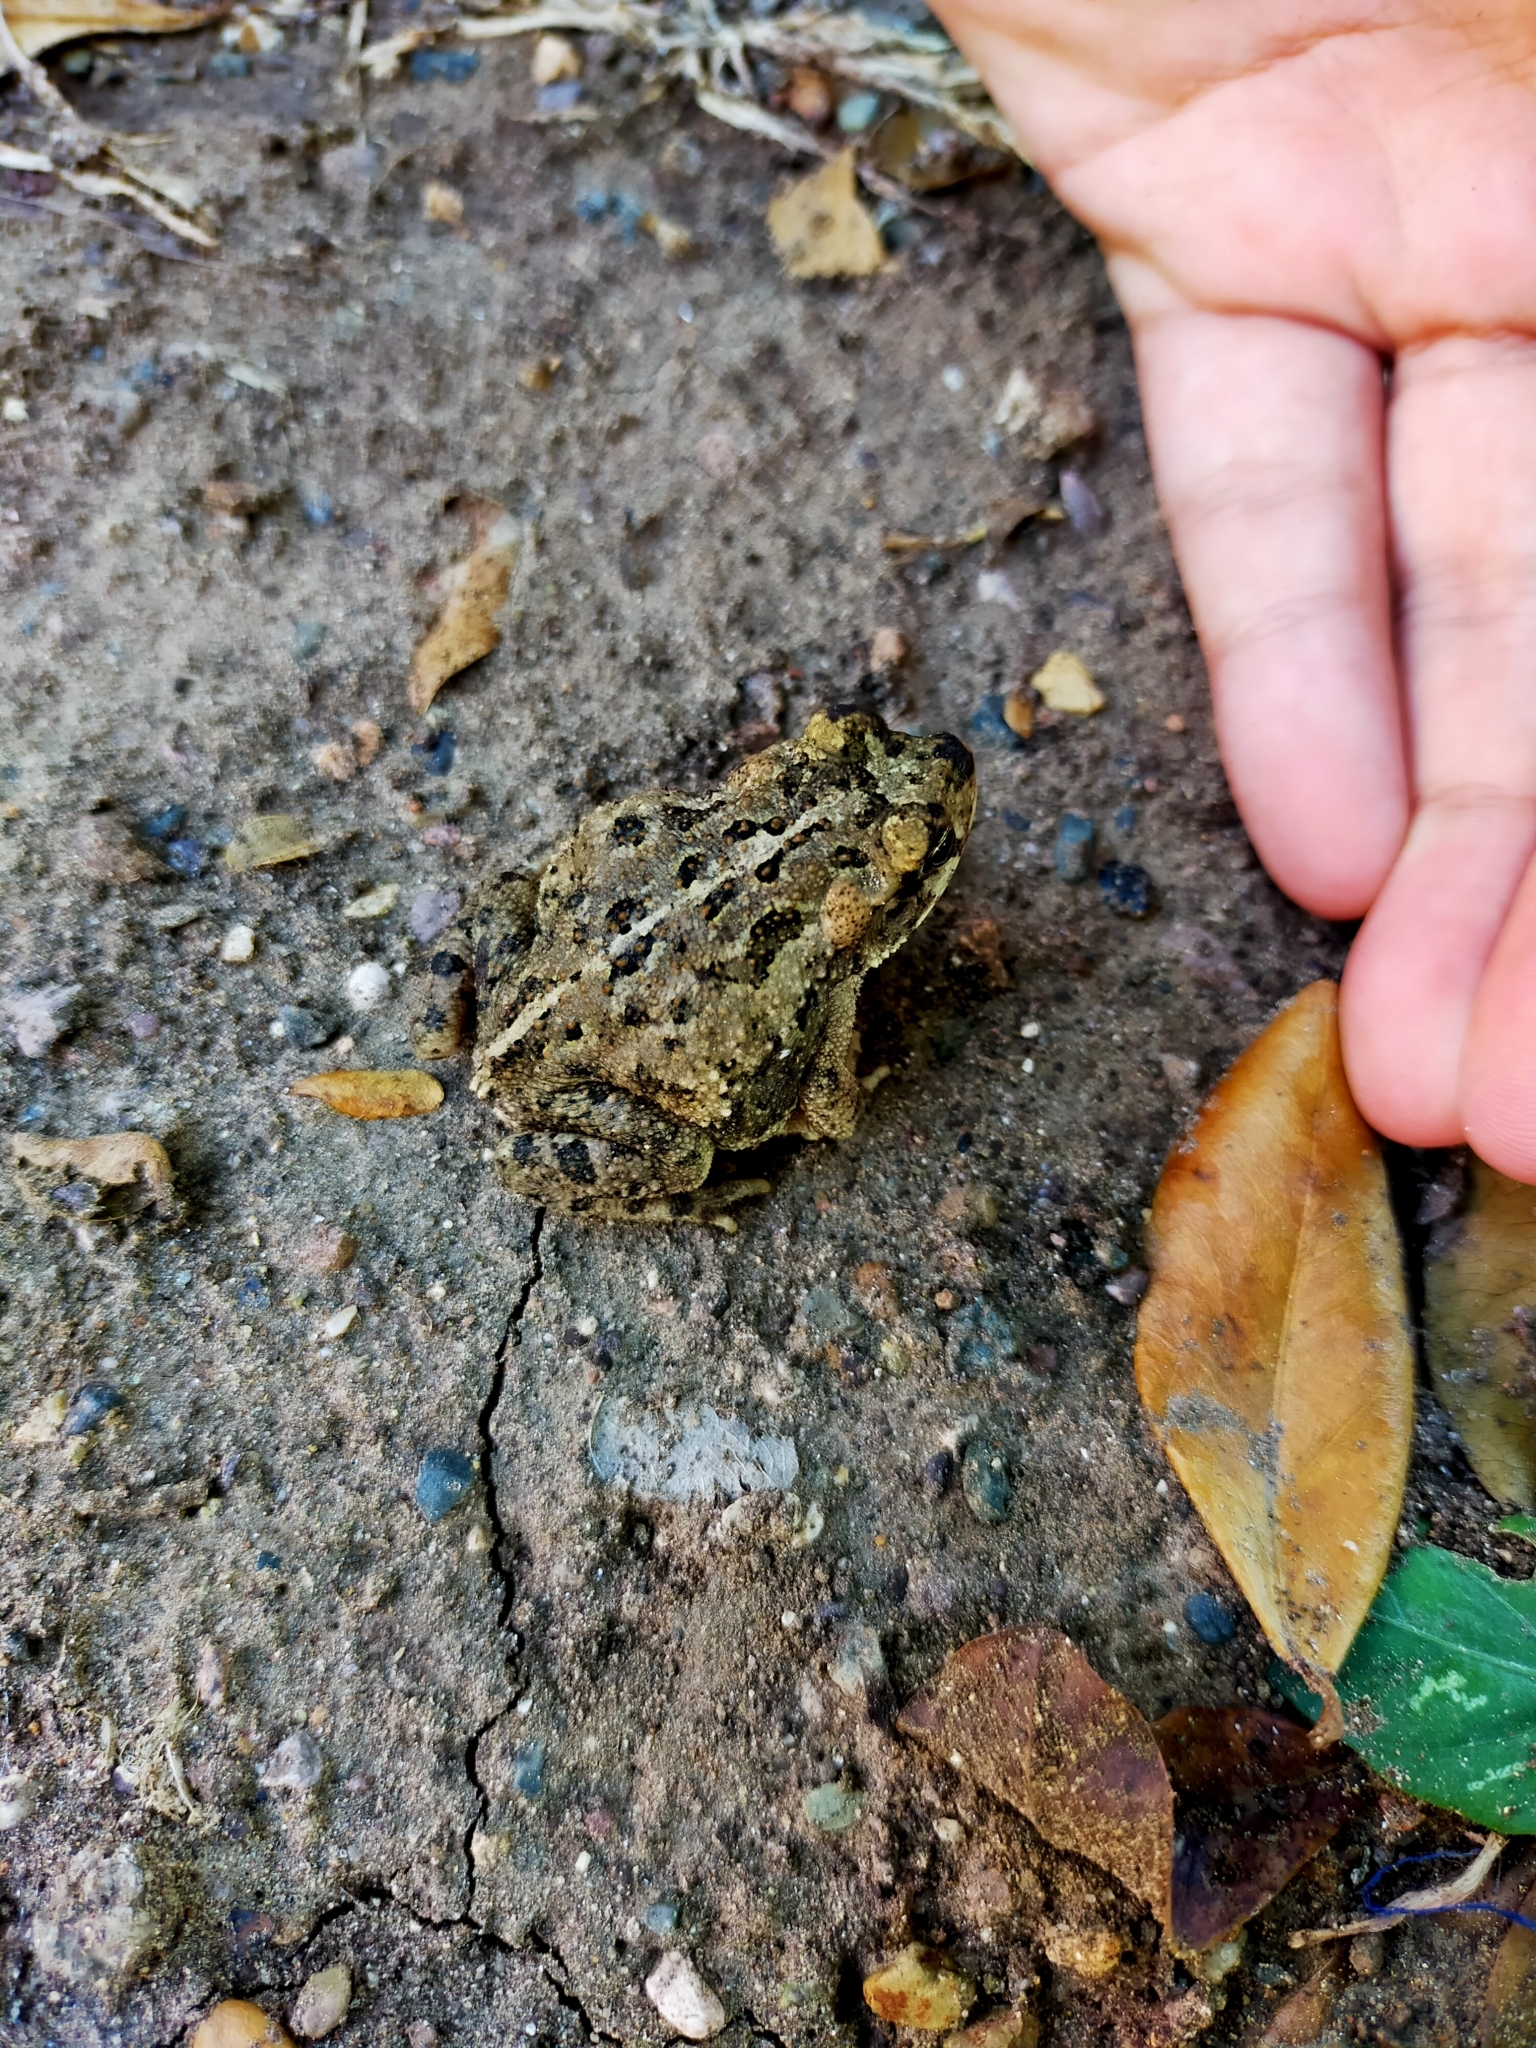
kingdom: Animalia
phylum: Chordata
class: Amphibia
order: Anura
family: Bufonidae
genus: Incilius
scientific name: Incilius marmoreus
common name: Marbled toad
